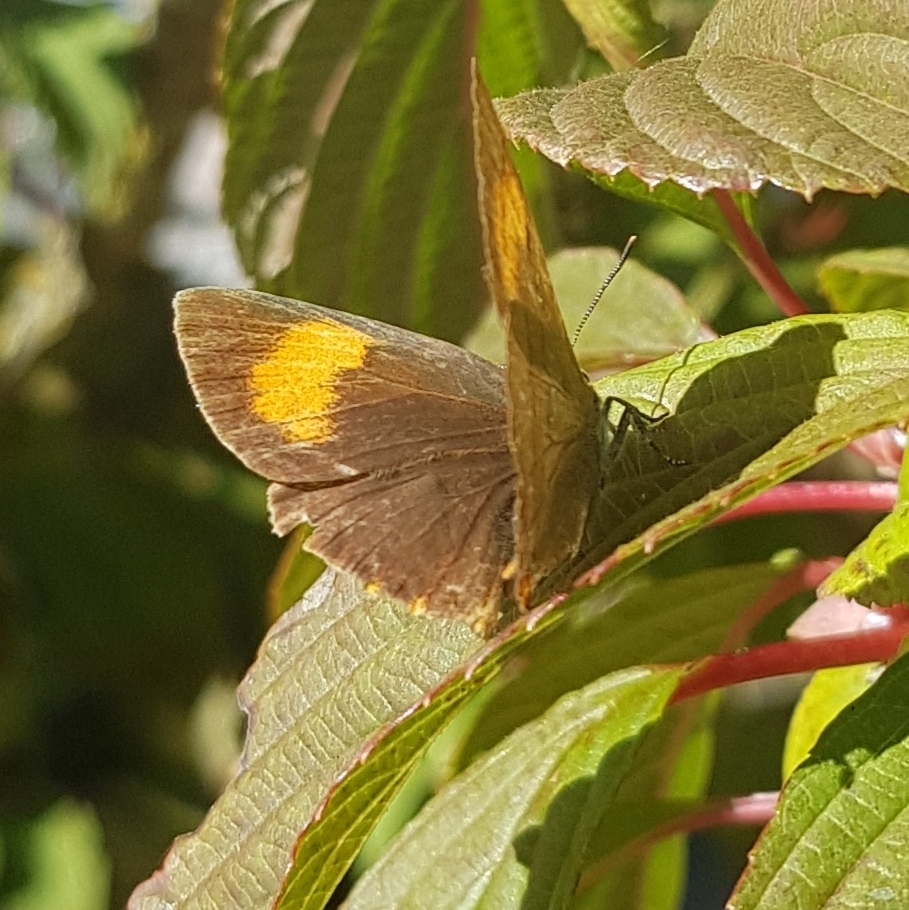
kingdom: Animalia
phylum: Arthropoda
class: Insecta
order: Lepidoptera
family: Lycaenidae
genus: Thecla
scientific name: Thecla betulae
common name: Brown hairstreak
